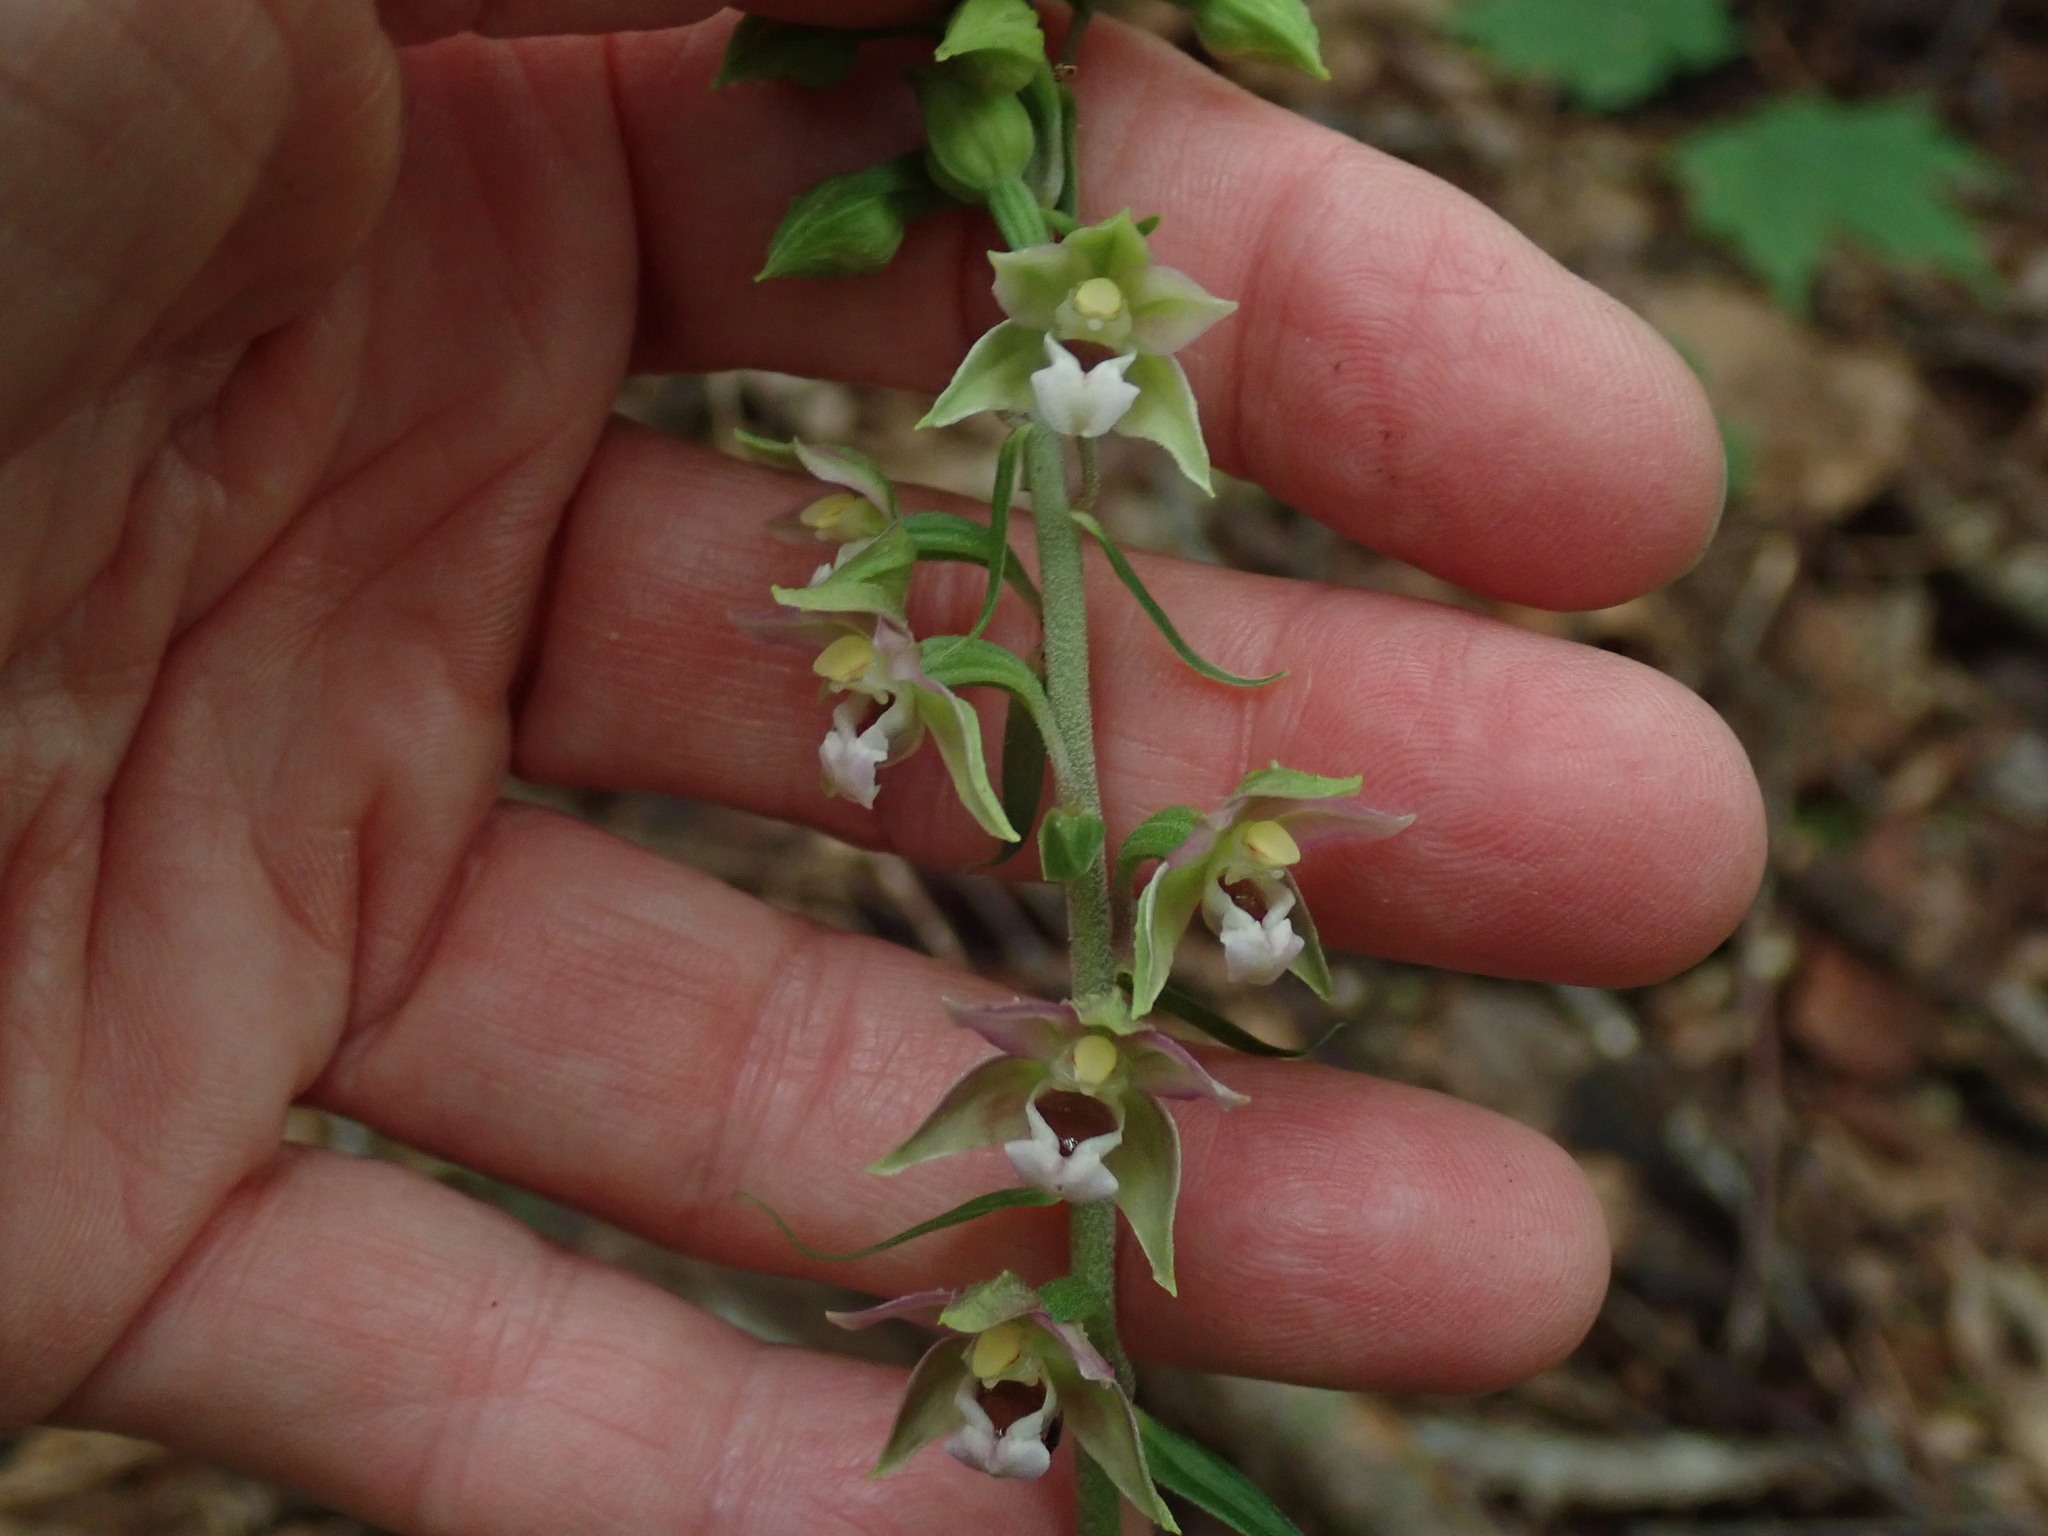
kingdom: Plantae
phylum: Tracheophyta
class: Liliopsida
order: Asparagales
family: Orchidaceae
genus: Epipactis
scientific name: Epipactis helleborine
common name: Broad-leaved helleborine
